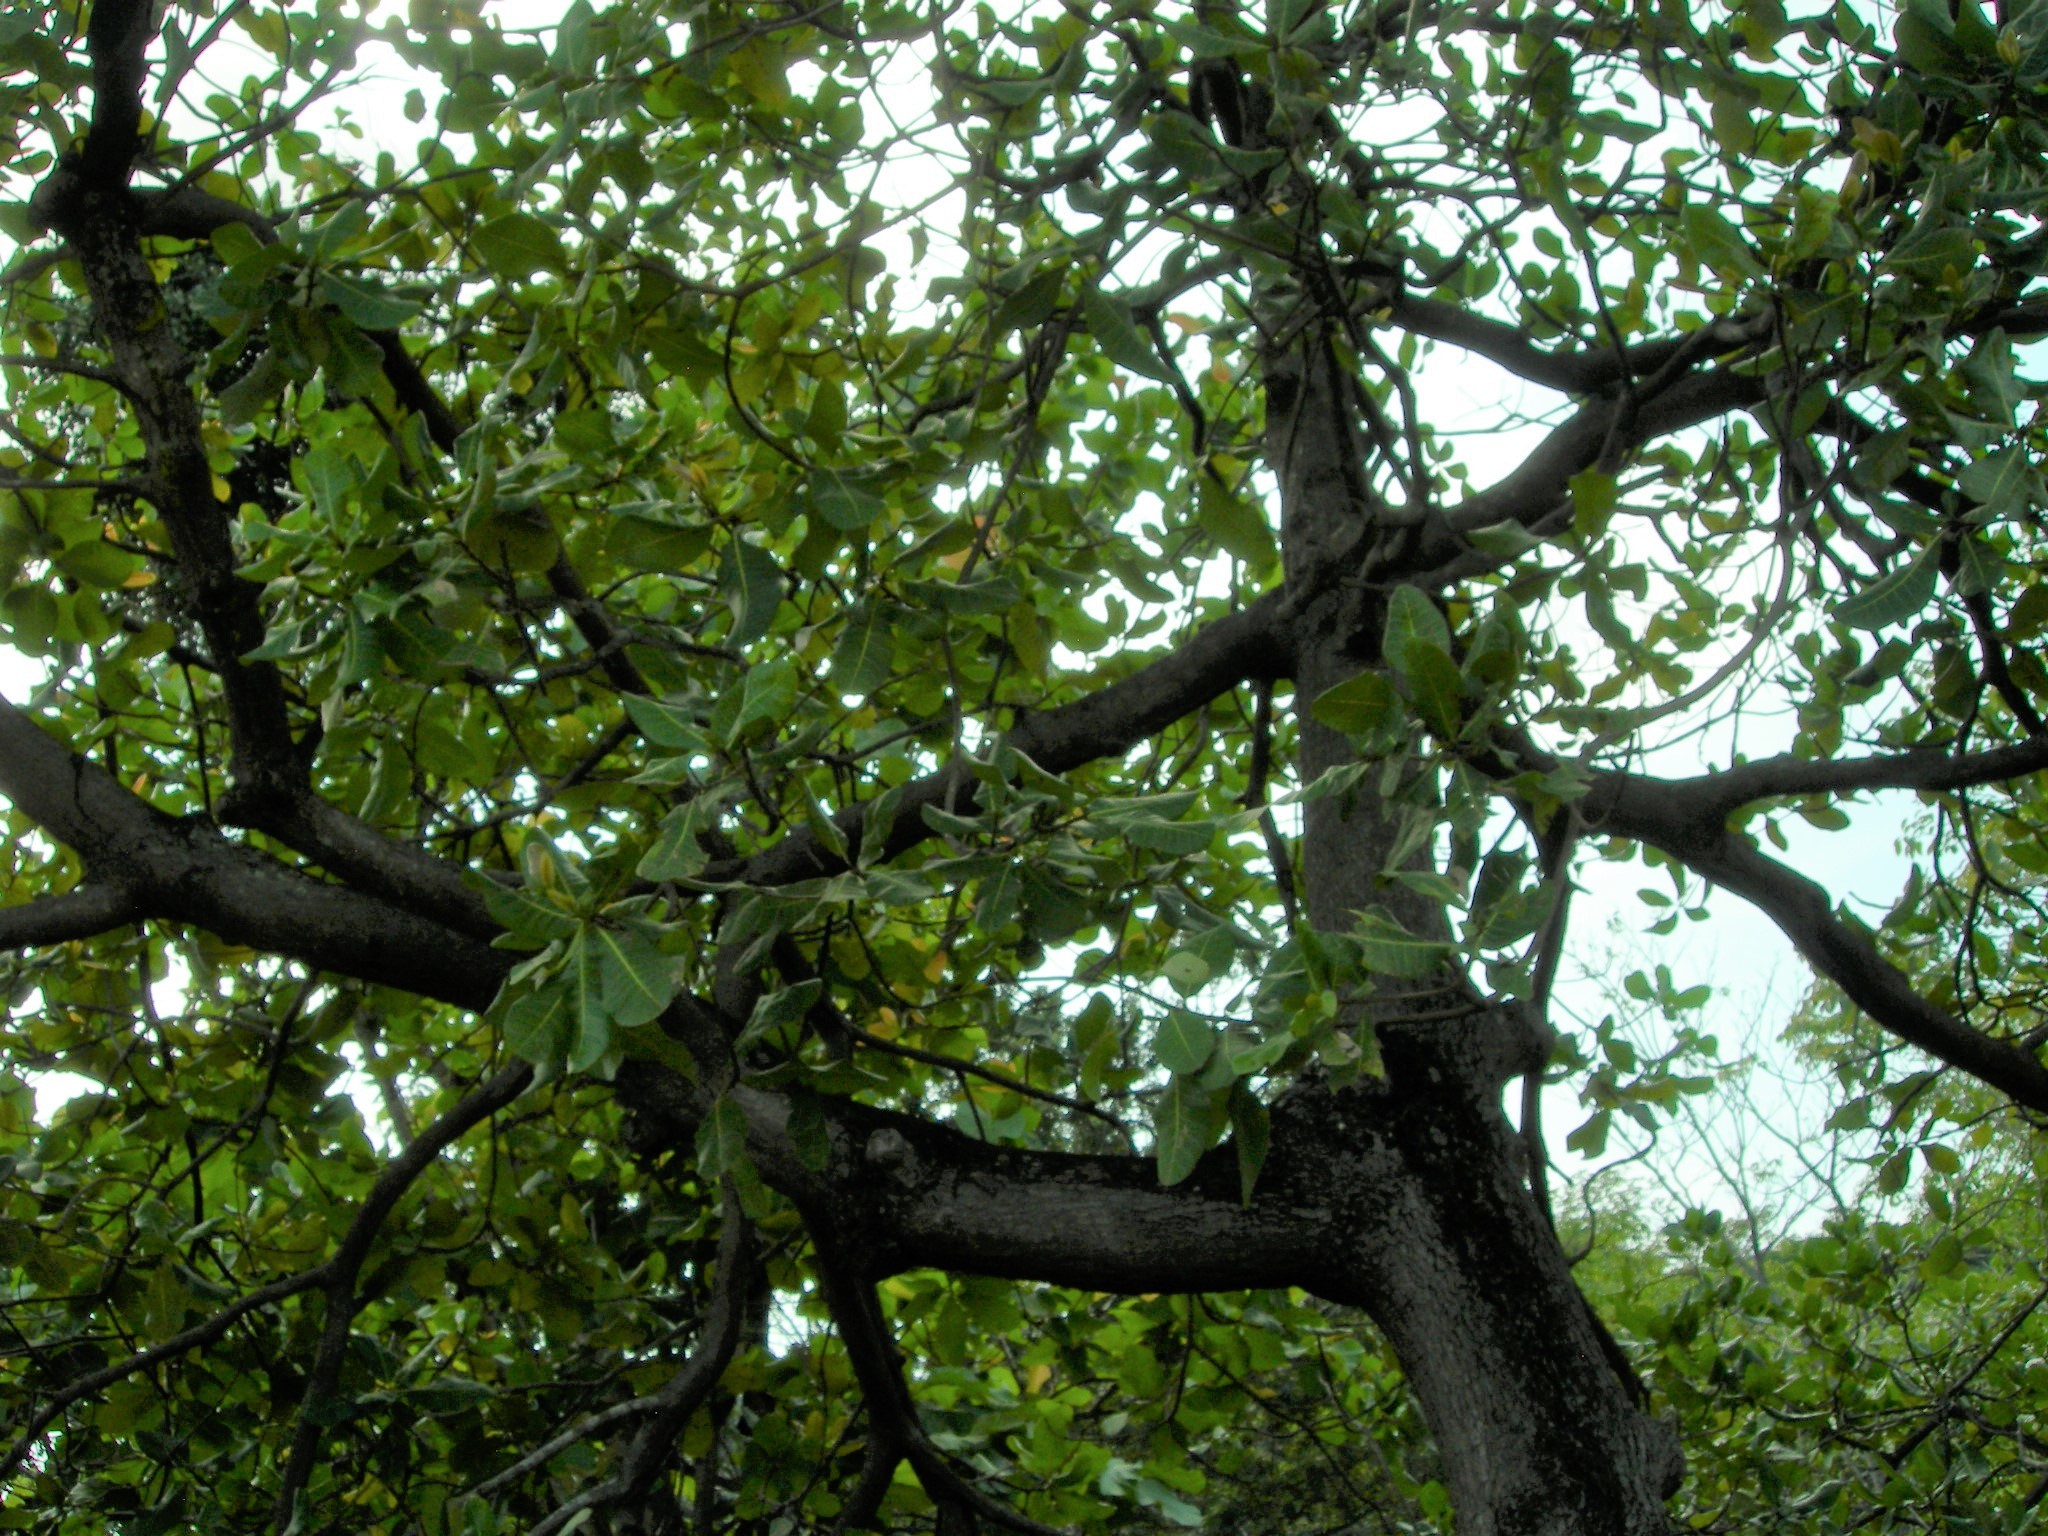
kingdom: Plantae
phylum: Tracheophyta
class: Magnoliopsida
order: Sapindales
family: Anacardiaceae
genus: Anacardium
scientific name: Anacardium excelsum
